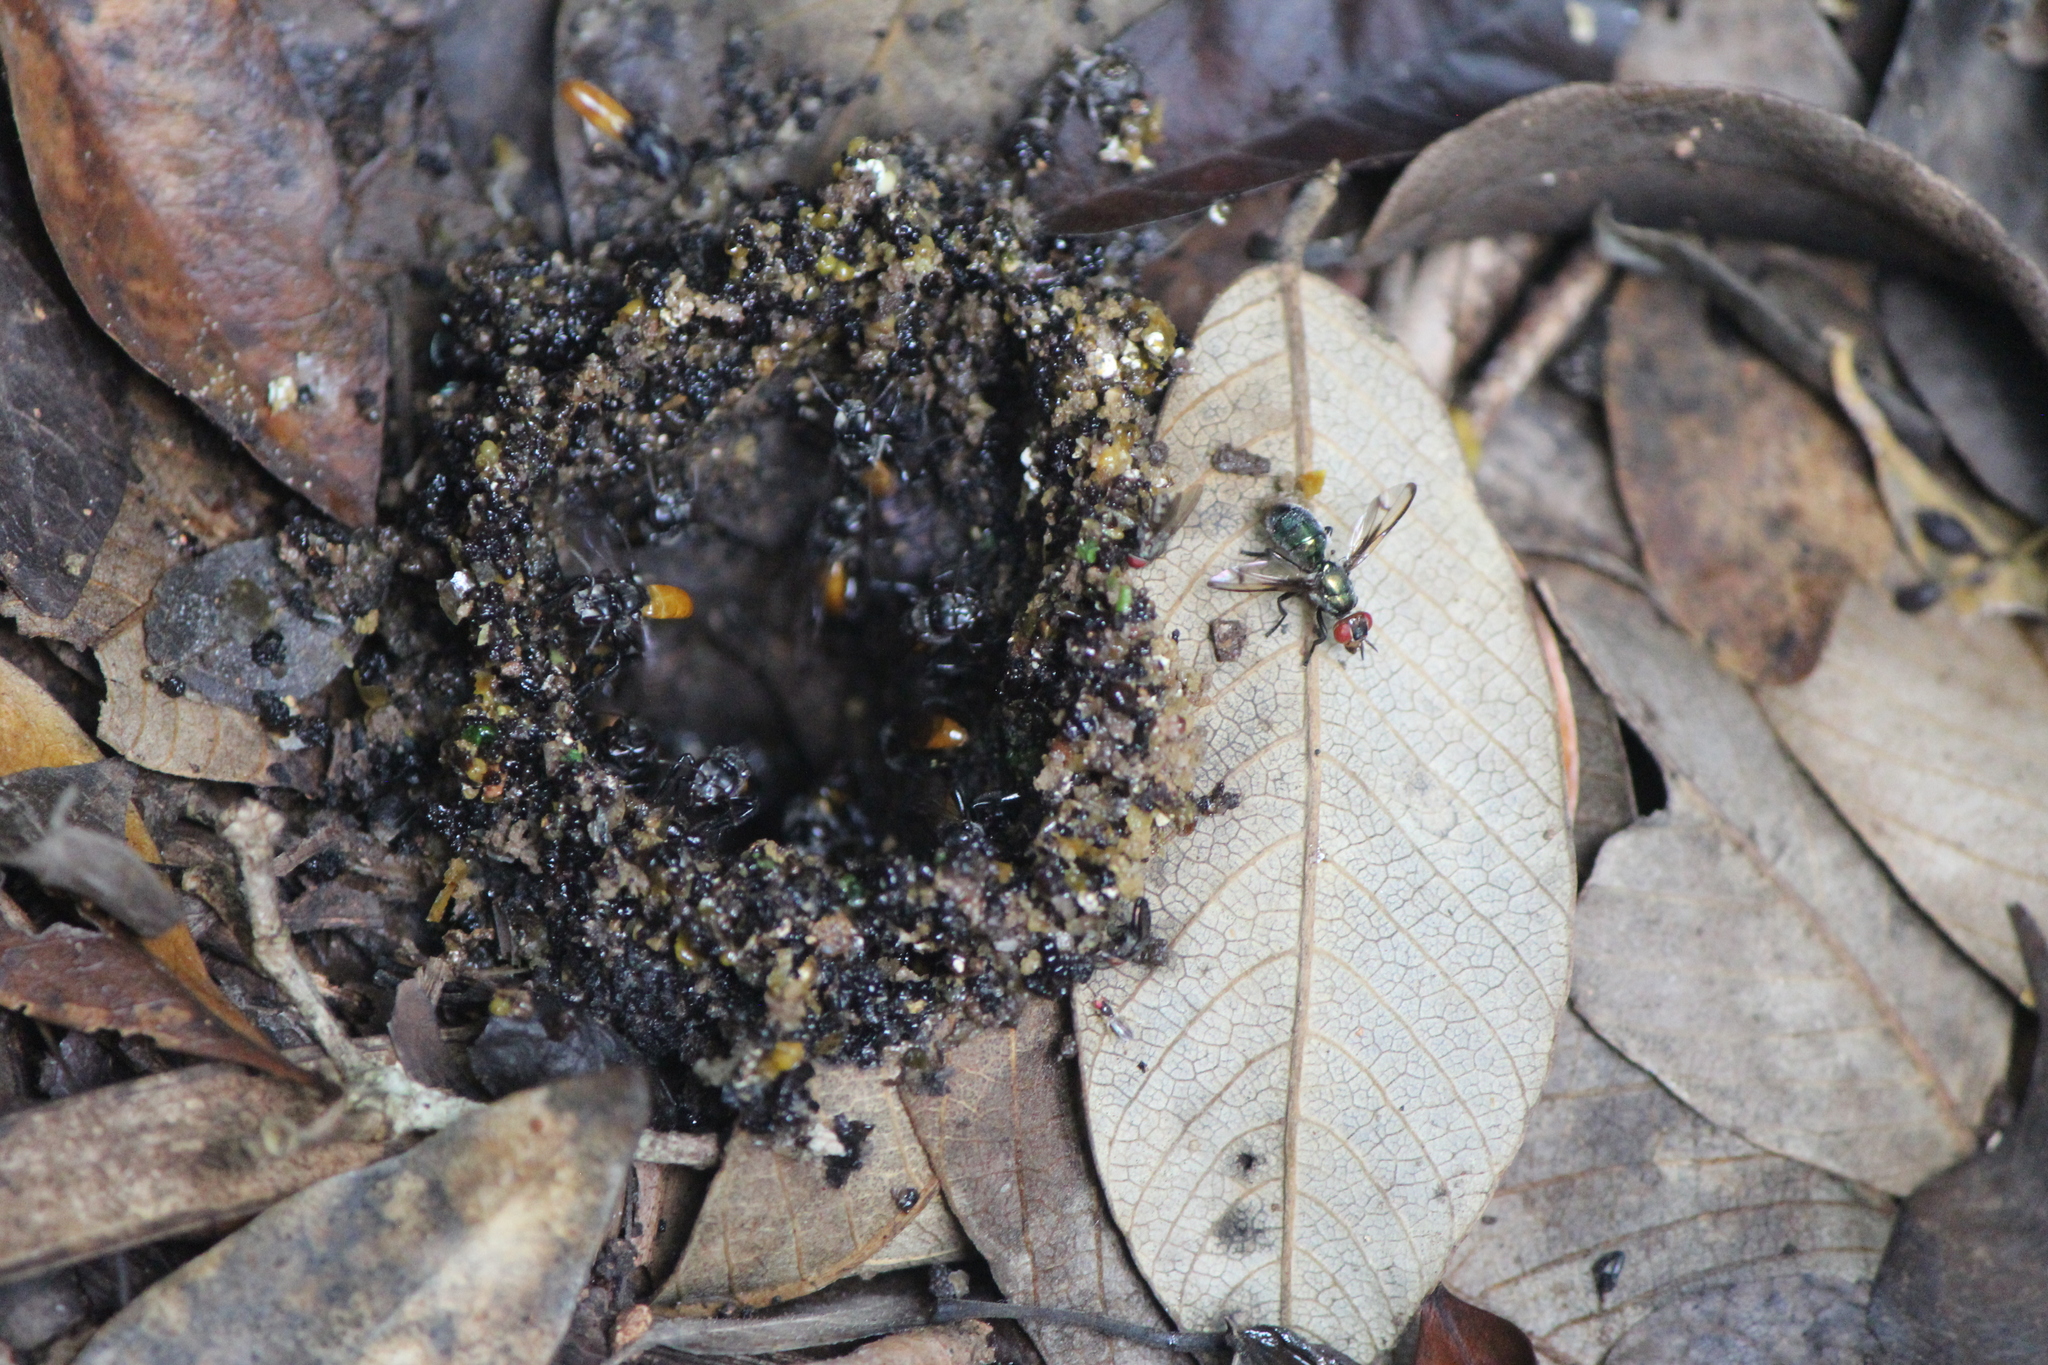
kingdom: Animalia
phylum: Arthropoda
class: Insecta
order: Hymenoptera
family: Apidae
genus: Trigona
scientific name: Trigona fulviventris
